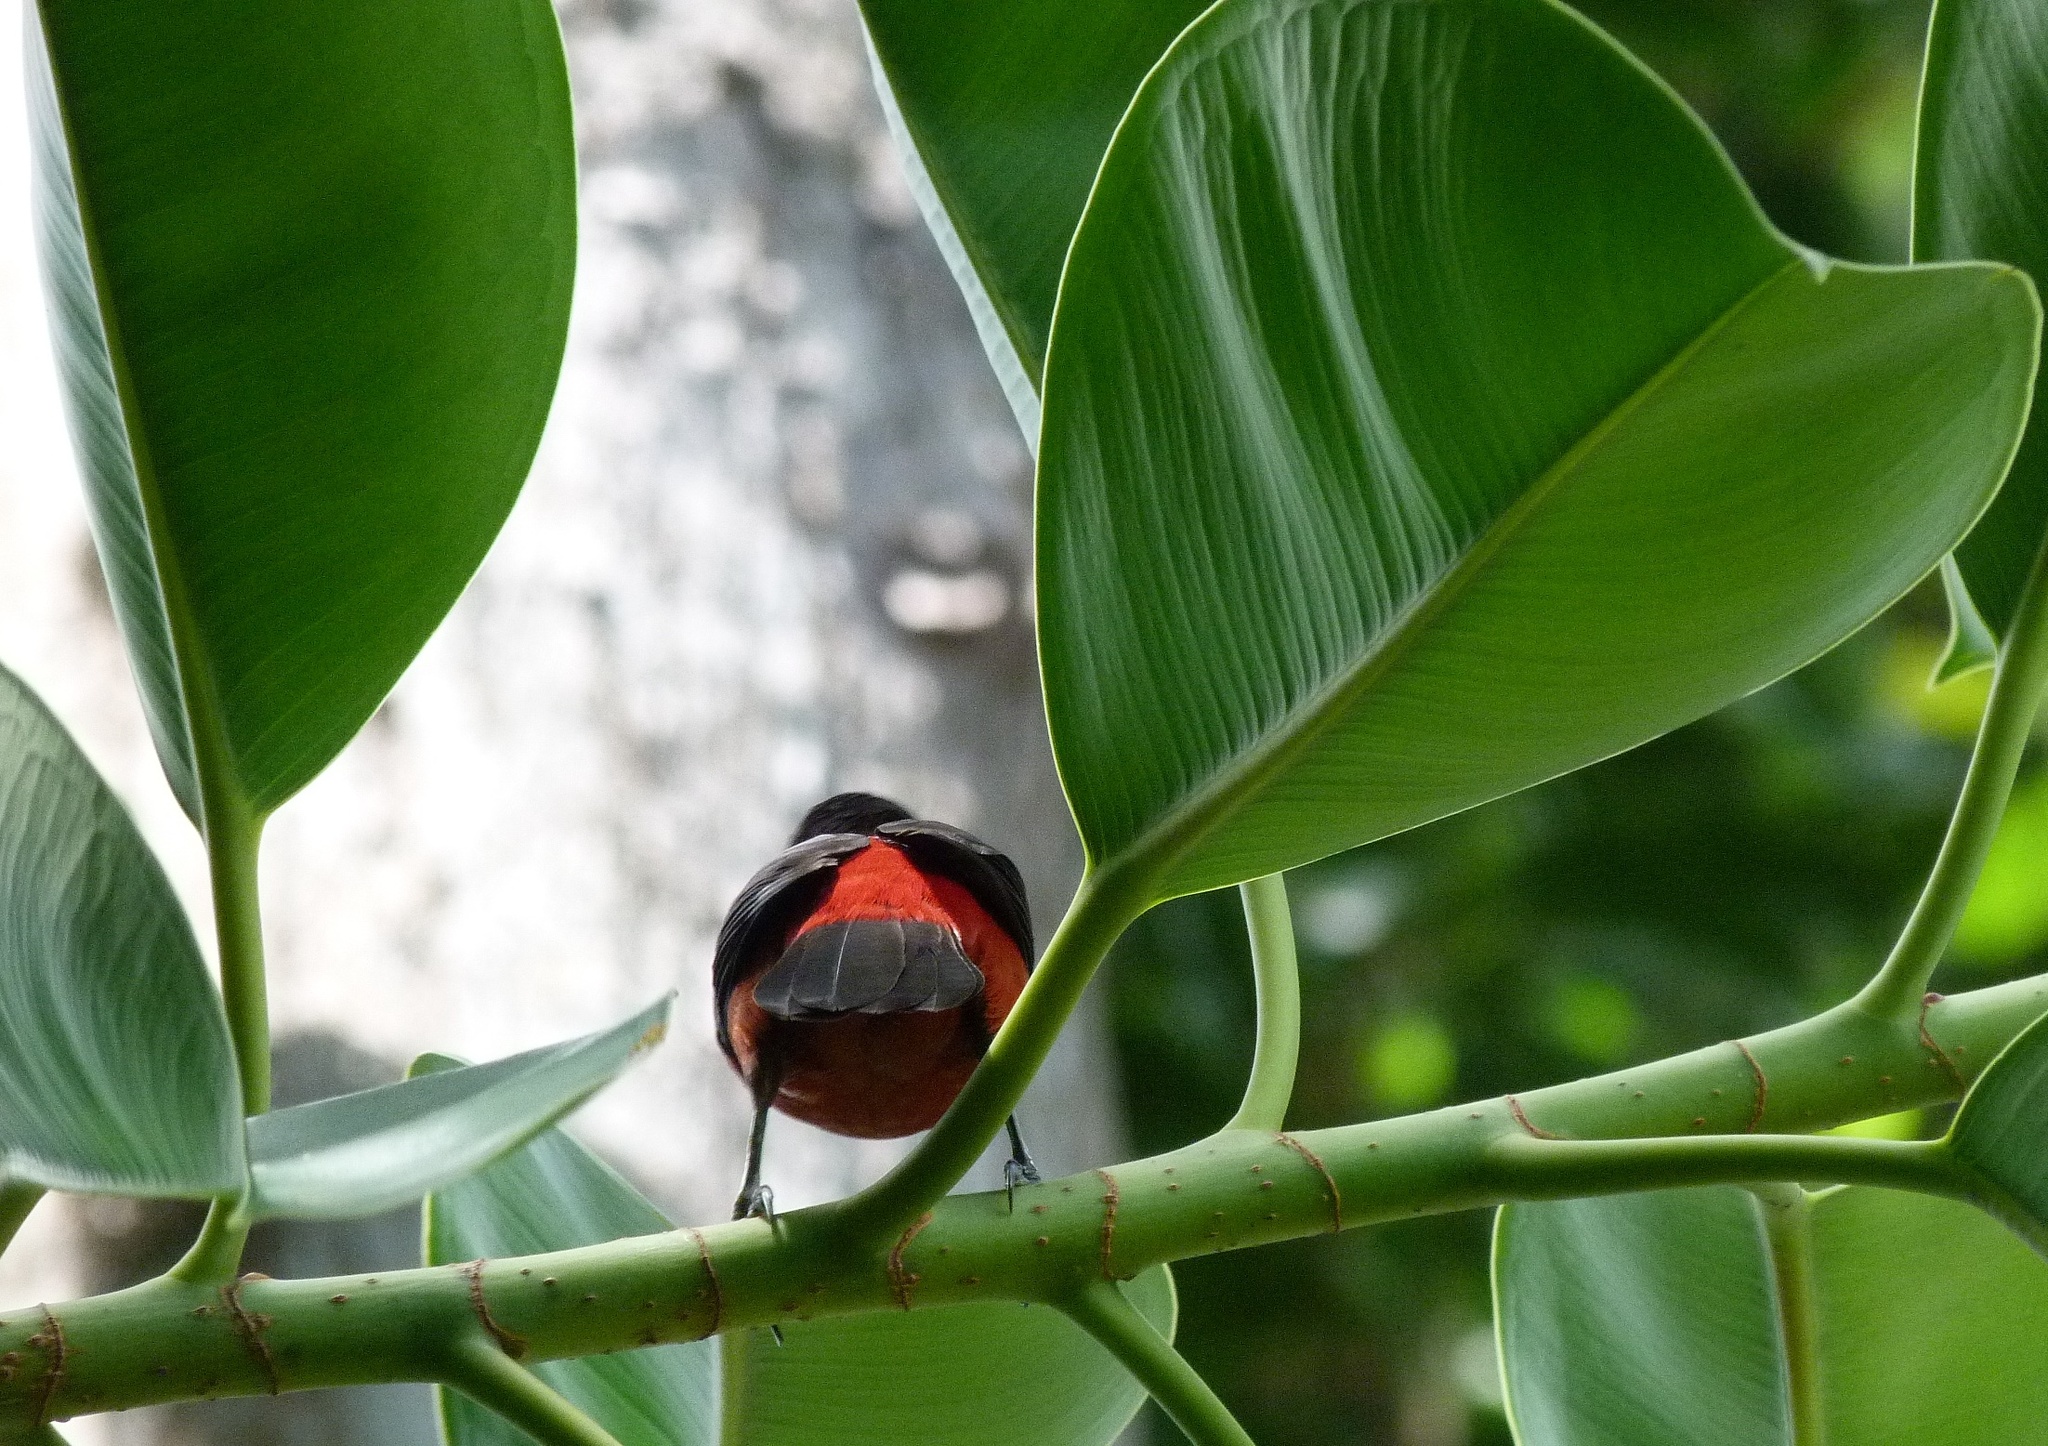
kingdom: Animalia
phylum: Chordata
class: Aves
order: Passeriformes
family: Thraupidae
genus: Ramphocelus
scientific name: Ramphocelus dimidiatus
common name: Crimson-backed tanager
